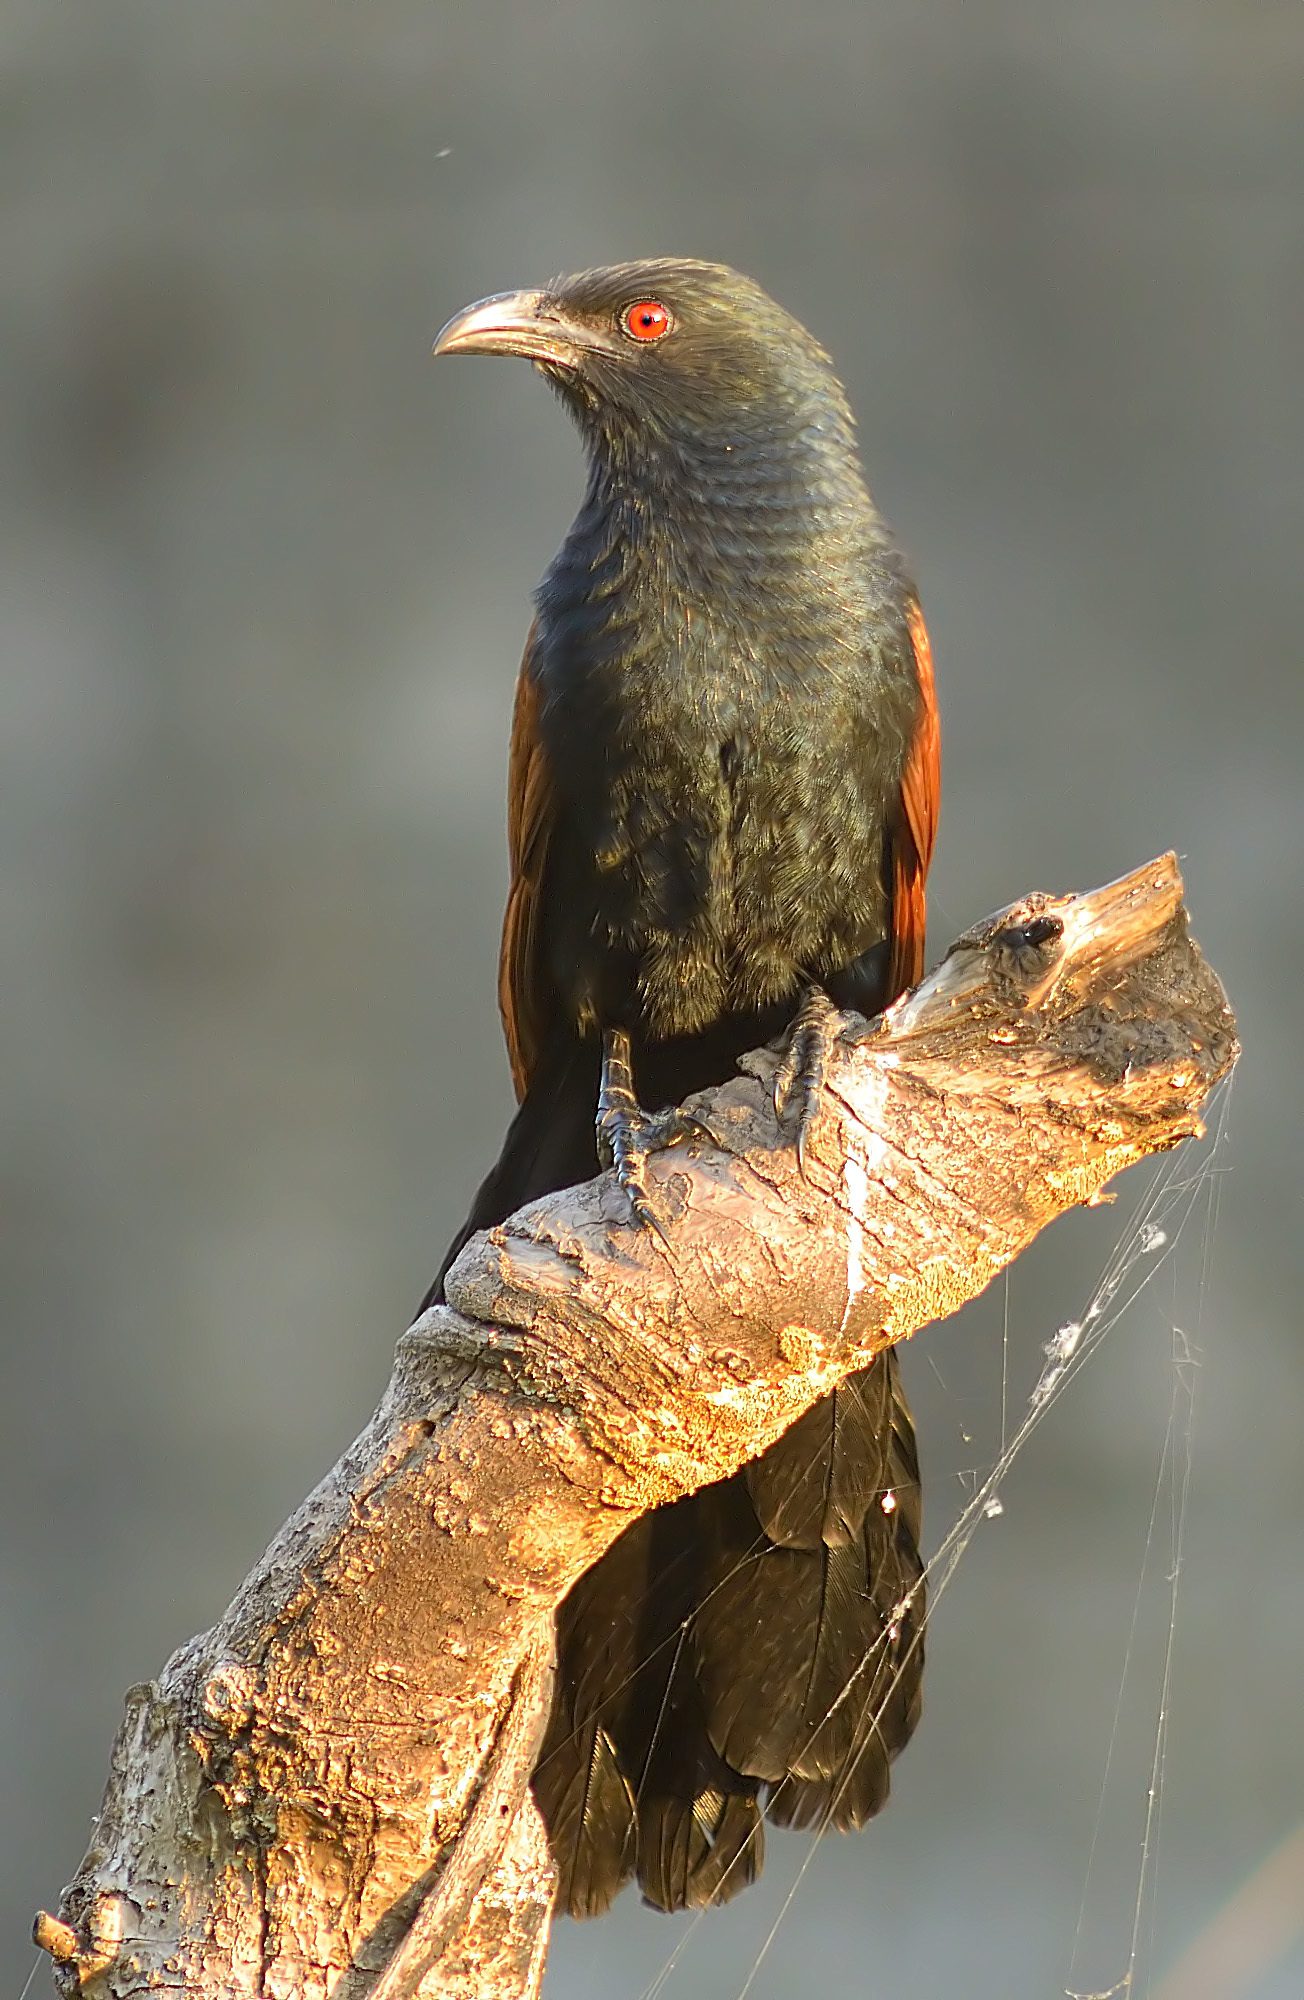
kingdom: Animalia
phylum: Chordata
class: Aves
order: Cuculiformes
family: Cuculidae
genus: Centropus
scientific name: Centropus sinensis
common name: Greater coucal
